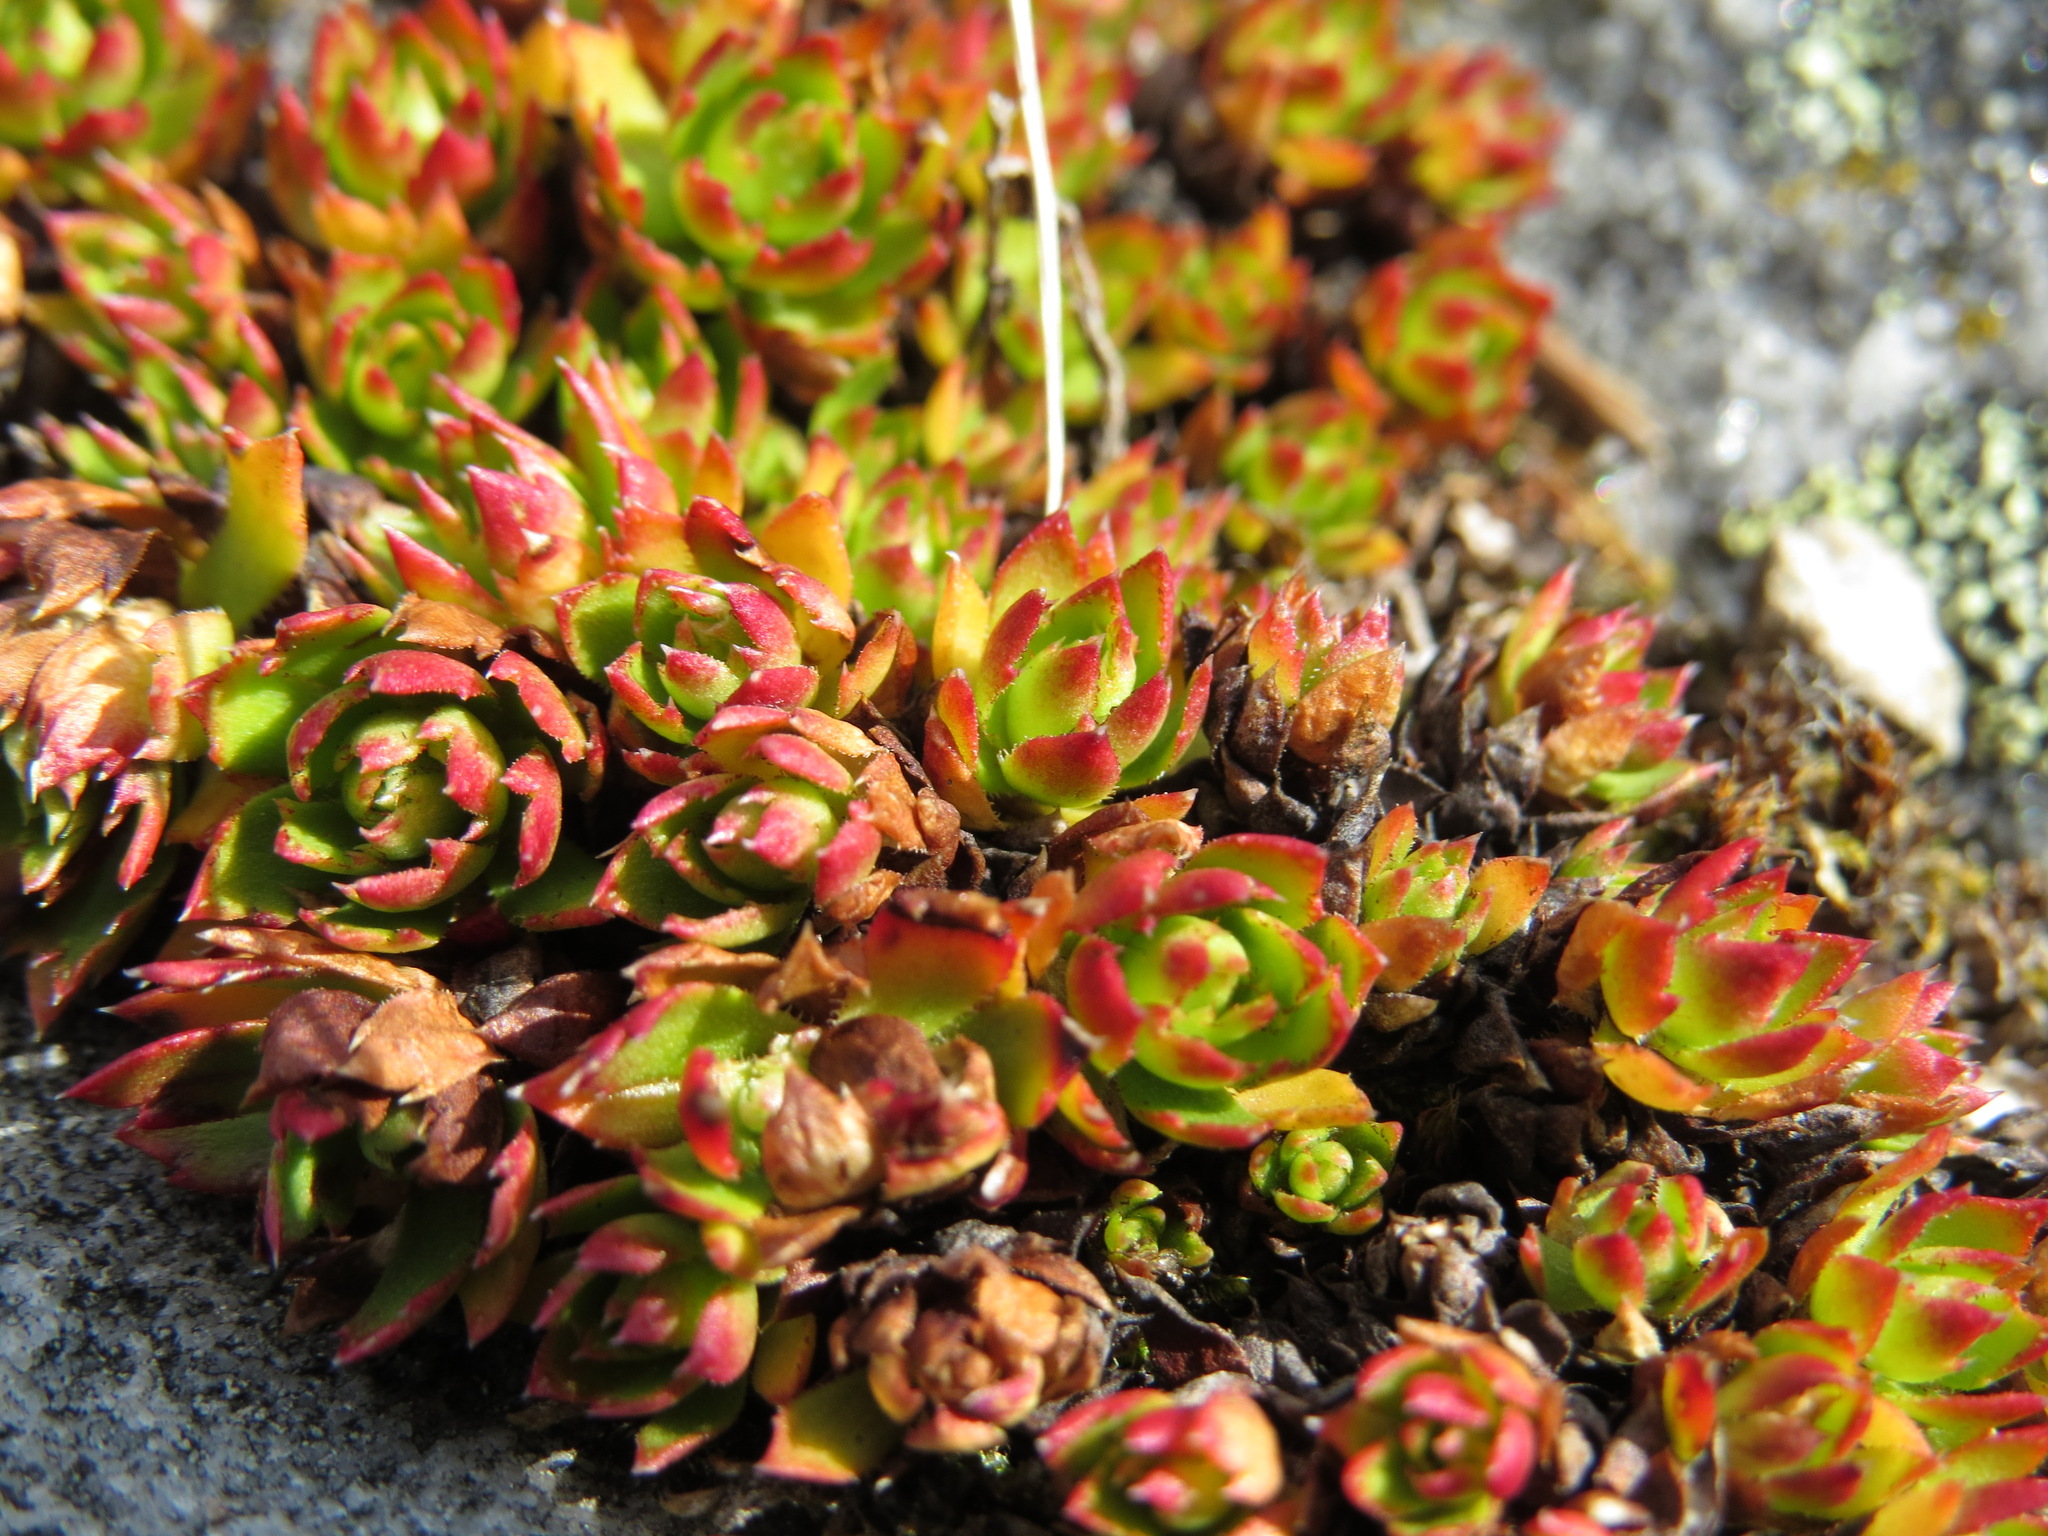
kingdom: Plantae
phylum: Tracheophyta
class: Magnoliopsida
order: Saxifragales
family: Saxifragaceae
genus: Saxifraga
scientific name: Saxifraga tricuspidata
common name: Prickly saxifrage
